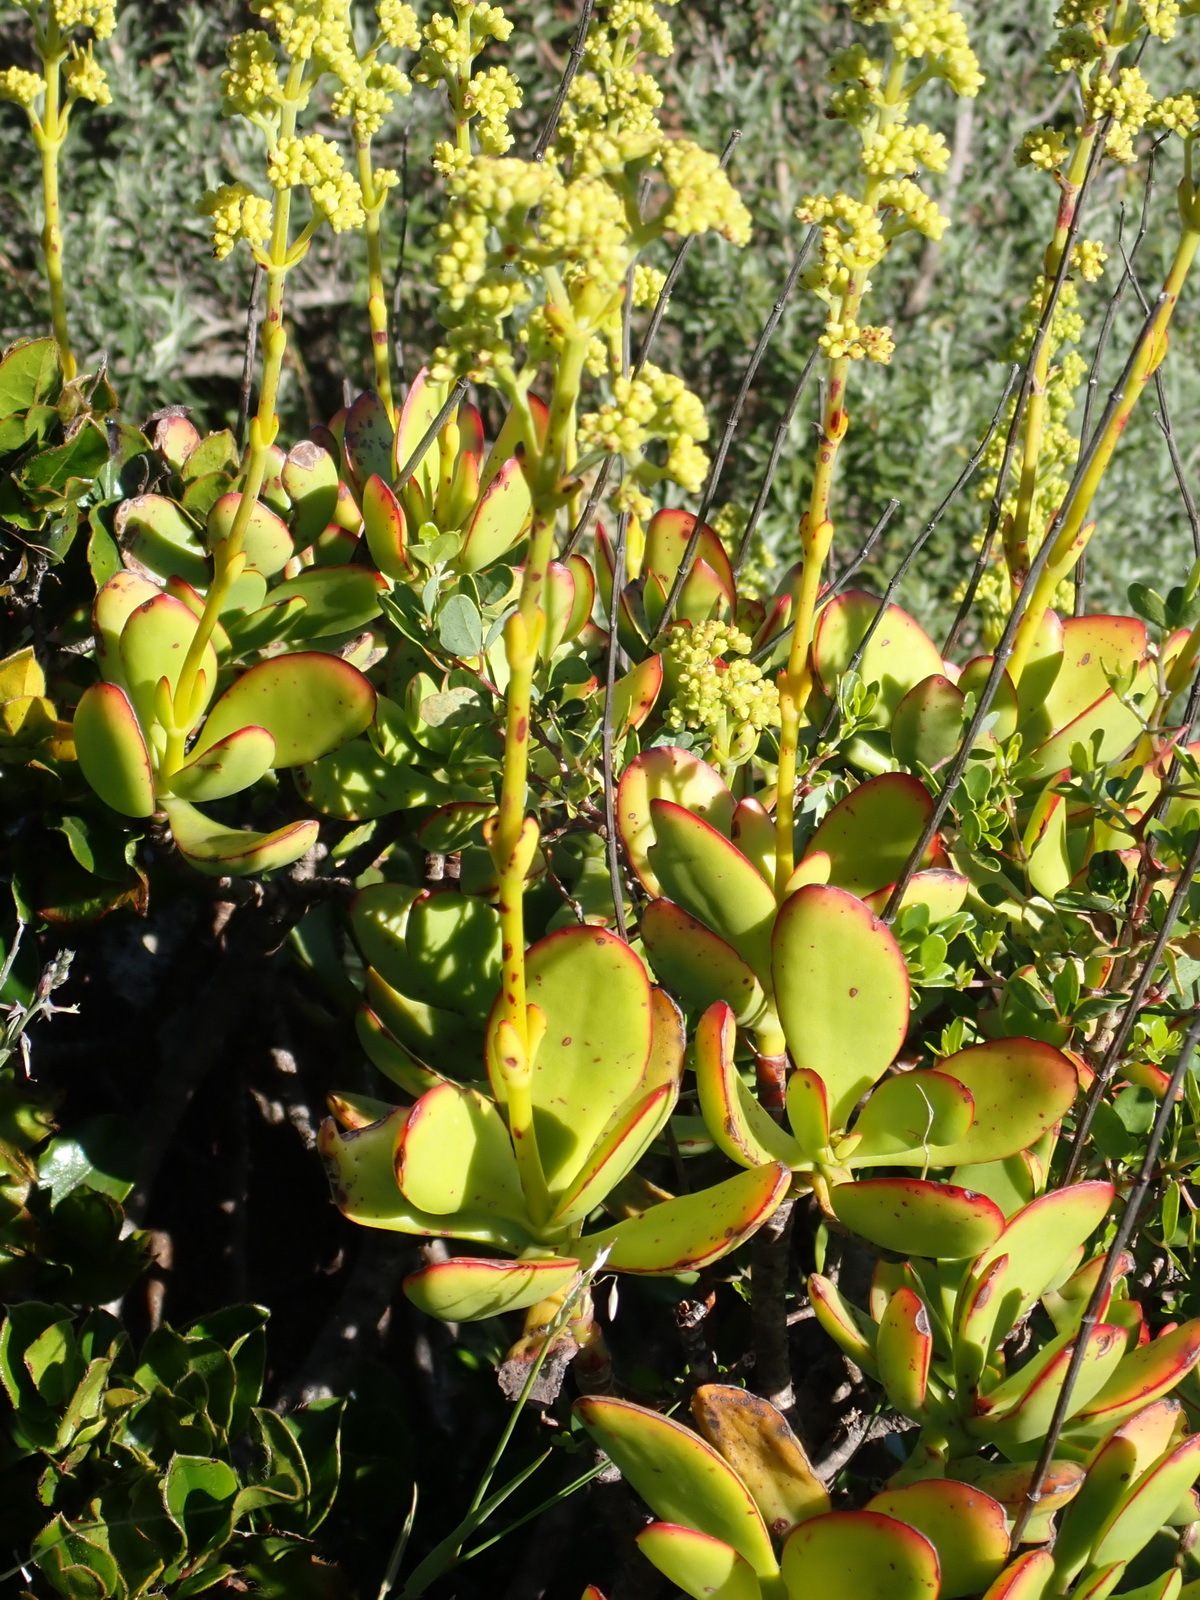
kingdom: Plantae
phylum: Tracheophyta
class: Magnoliopsida
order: Saxifragales
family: Crassulaceae
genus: Crassula
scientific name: Crassula cultrata
